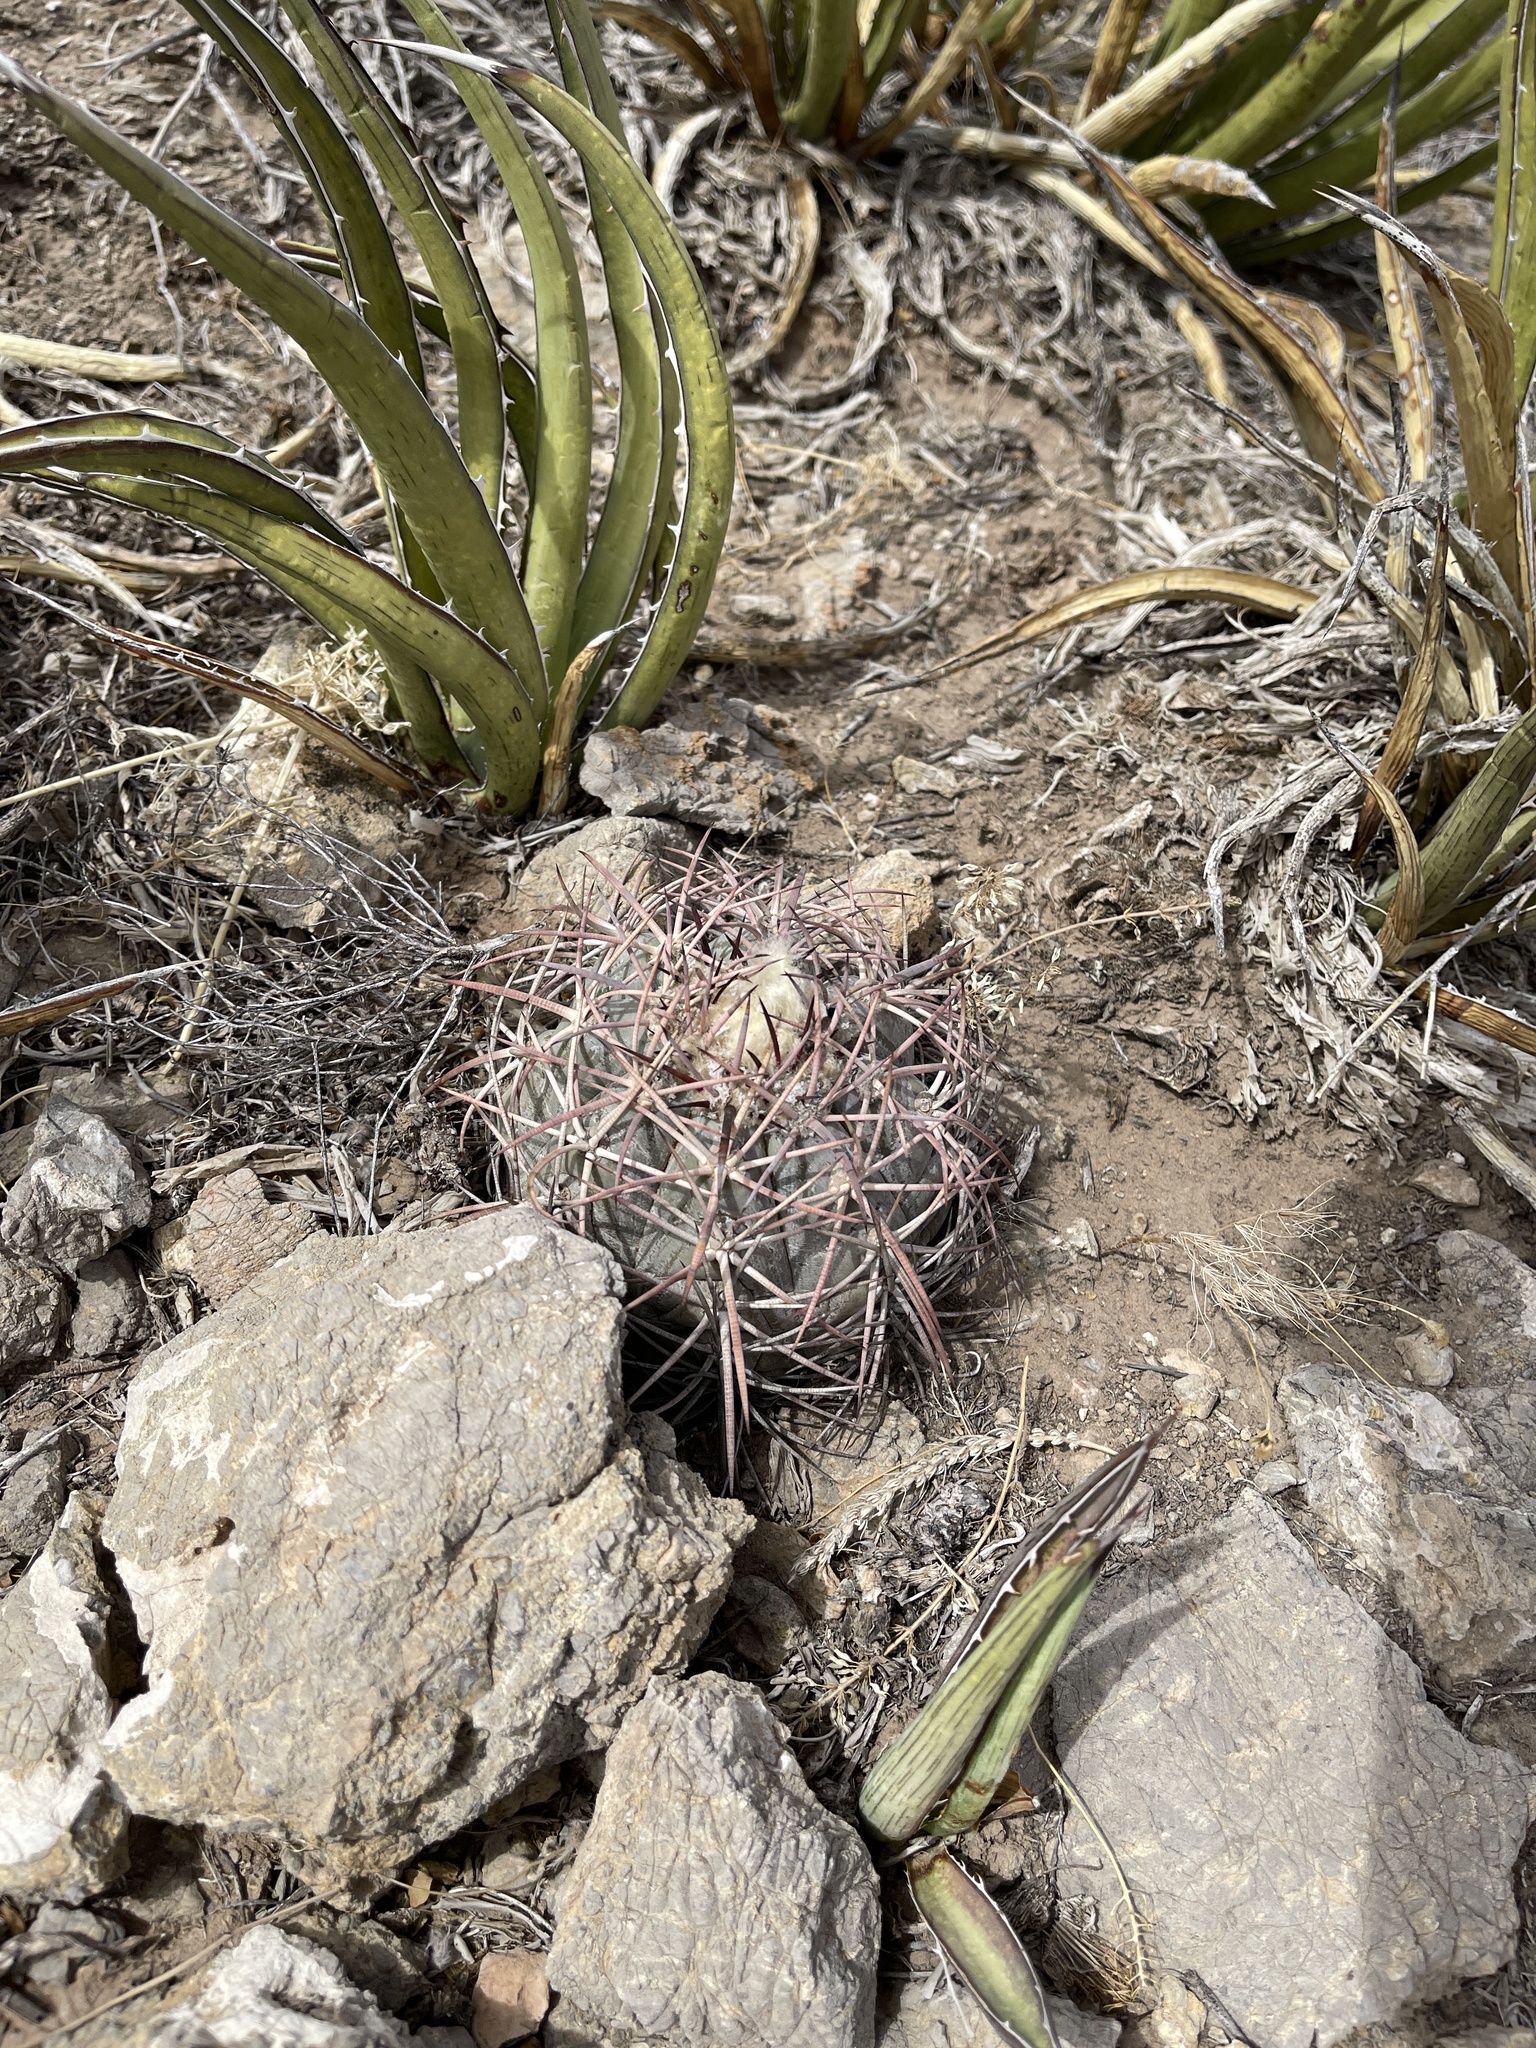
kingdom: Plantae
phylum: Tracheophyta
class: Magnoliopsida
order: Caryophyllales
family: Cactaceae
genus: Echinocactus
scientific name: Echinocactus horizonthalonius
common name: Devilshead
